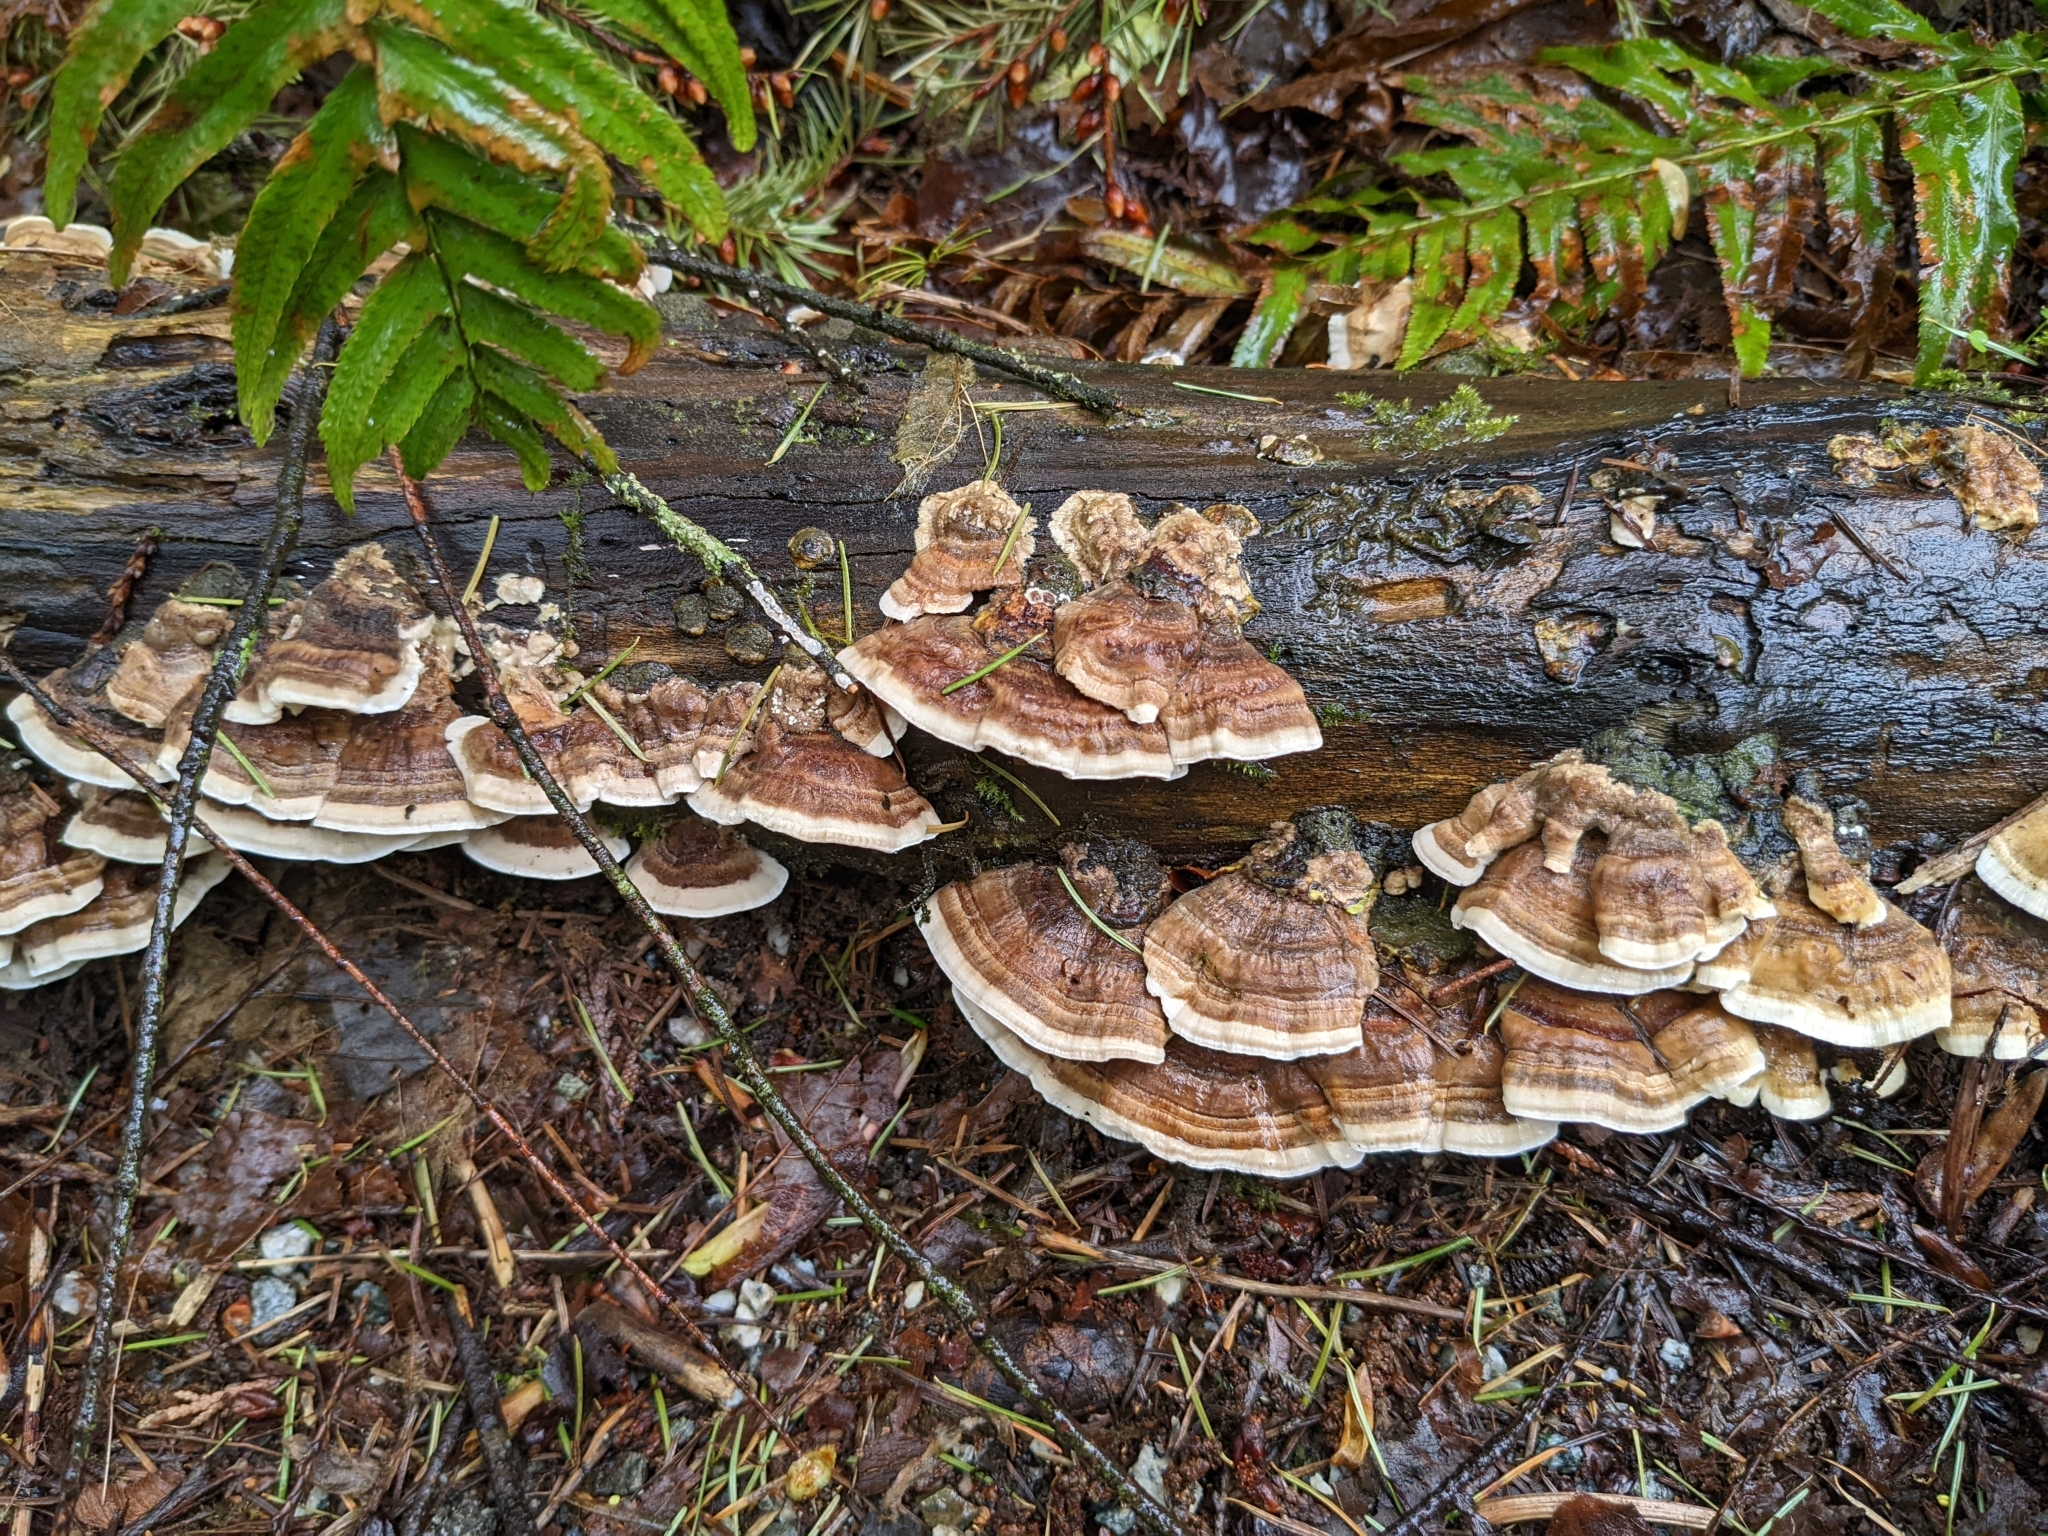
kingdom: Fungi
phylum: Basidiomycota
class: Agaricomycetes
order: Polyporales
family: Polyporaceae
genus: Trametes
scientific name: Trametes ochracea
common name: Ochre bracket
